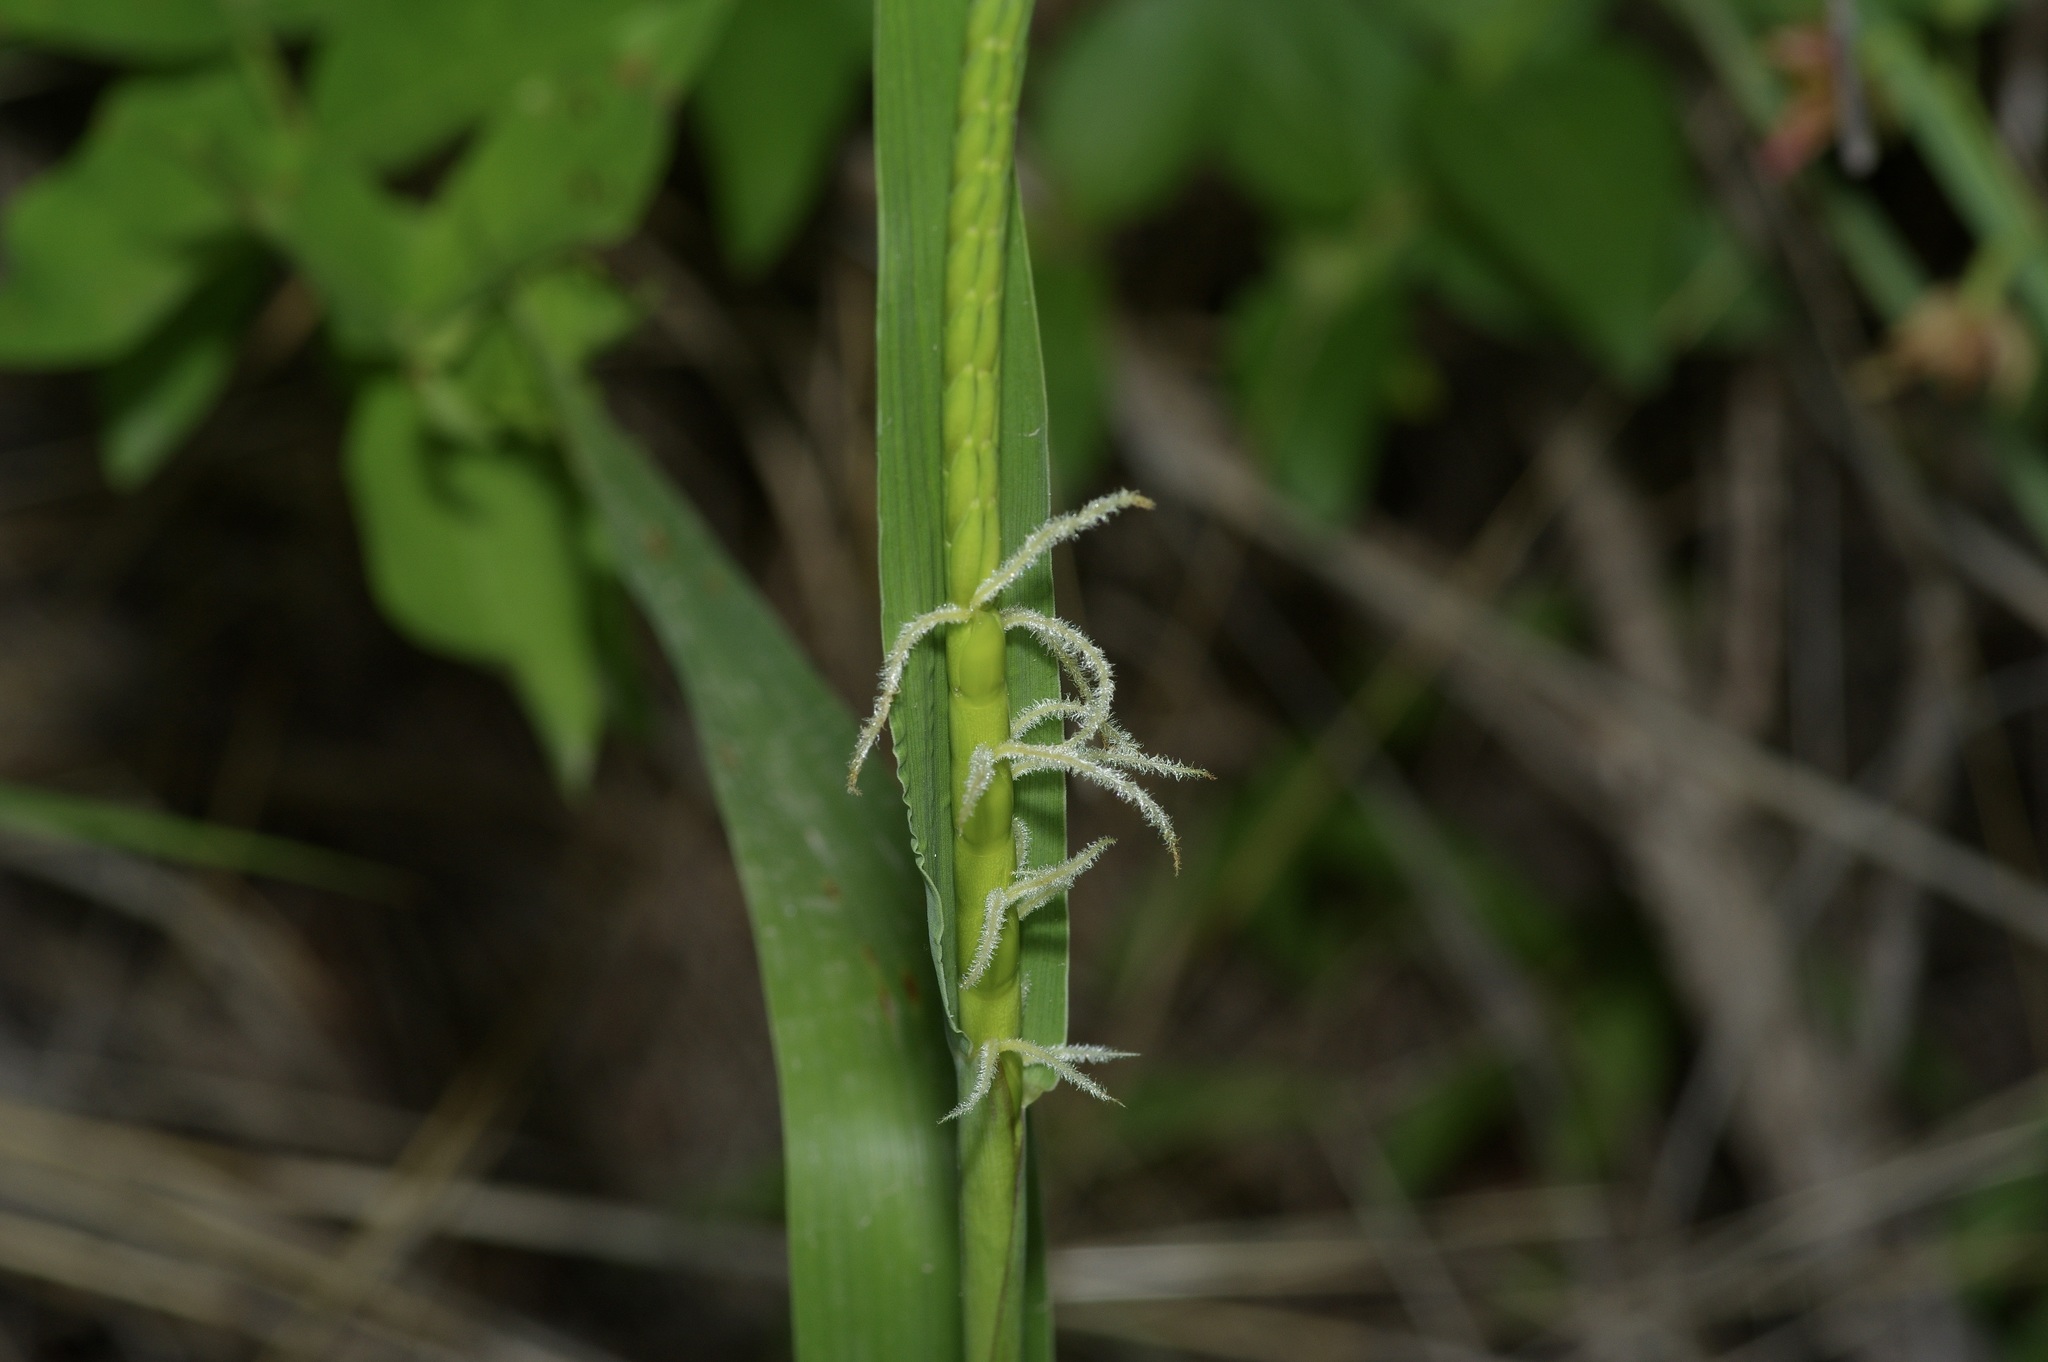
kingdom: Plantae
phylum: Tracheophyta
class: Liliopsida
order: Poales
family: Poaceae
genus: Tripsacum
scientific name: Tripsacum dactyloides
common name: Buffalo-grass
